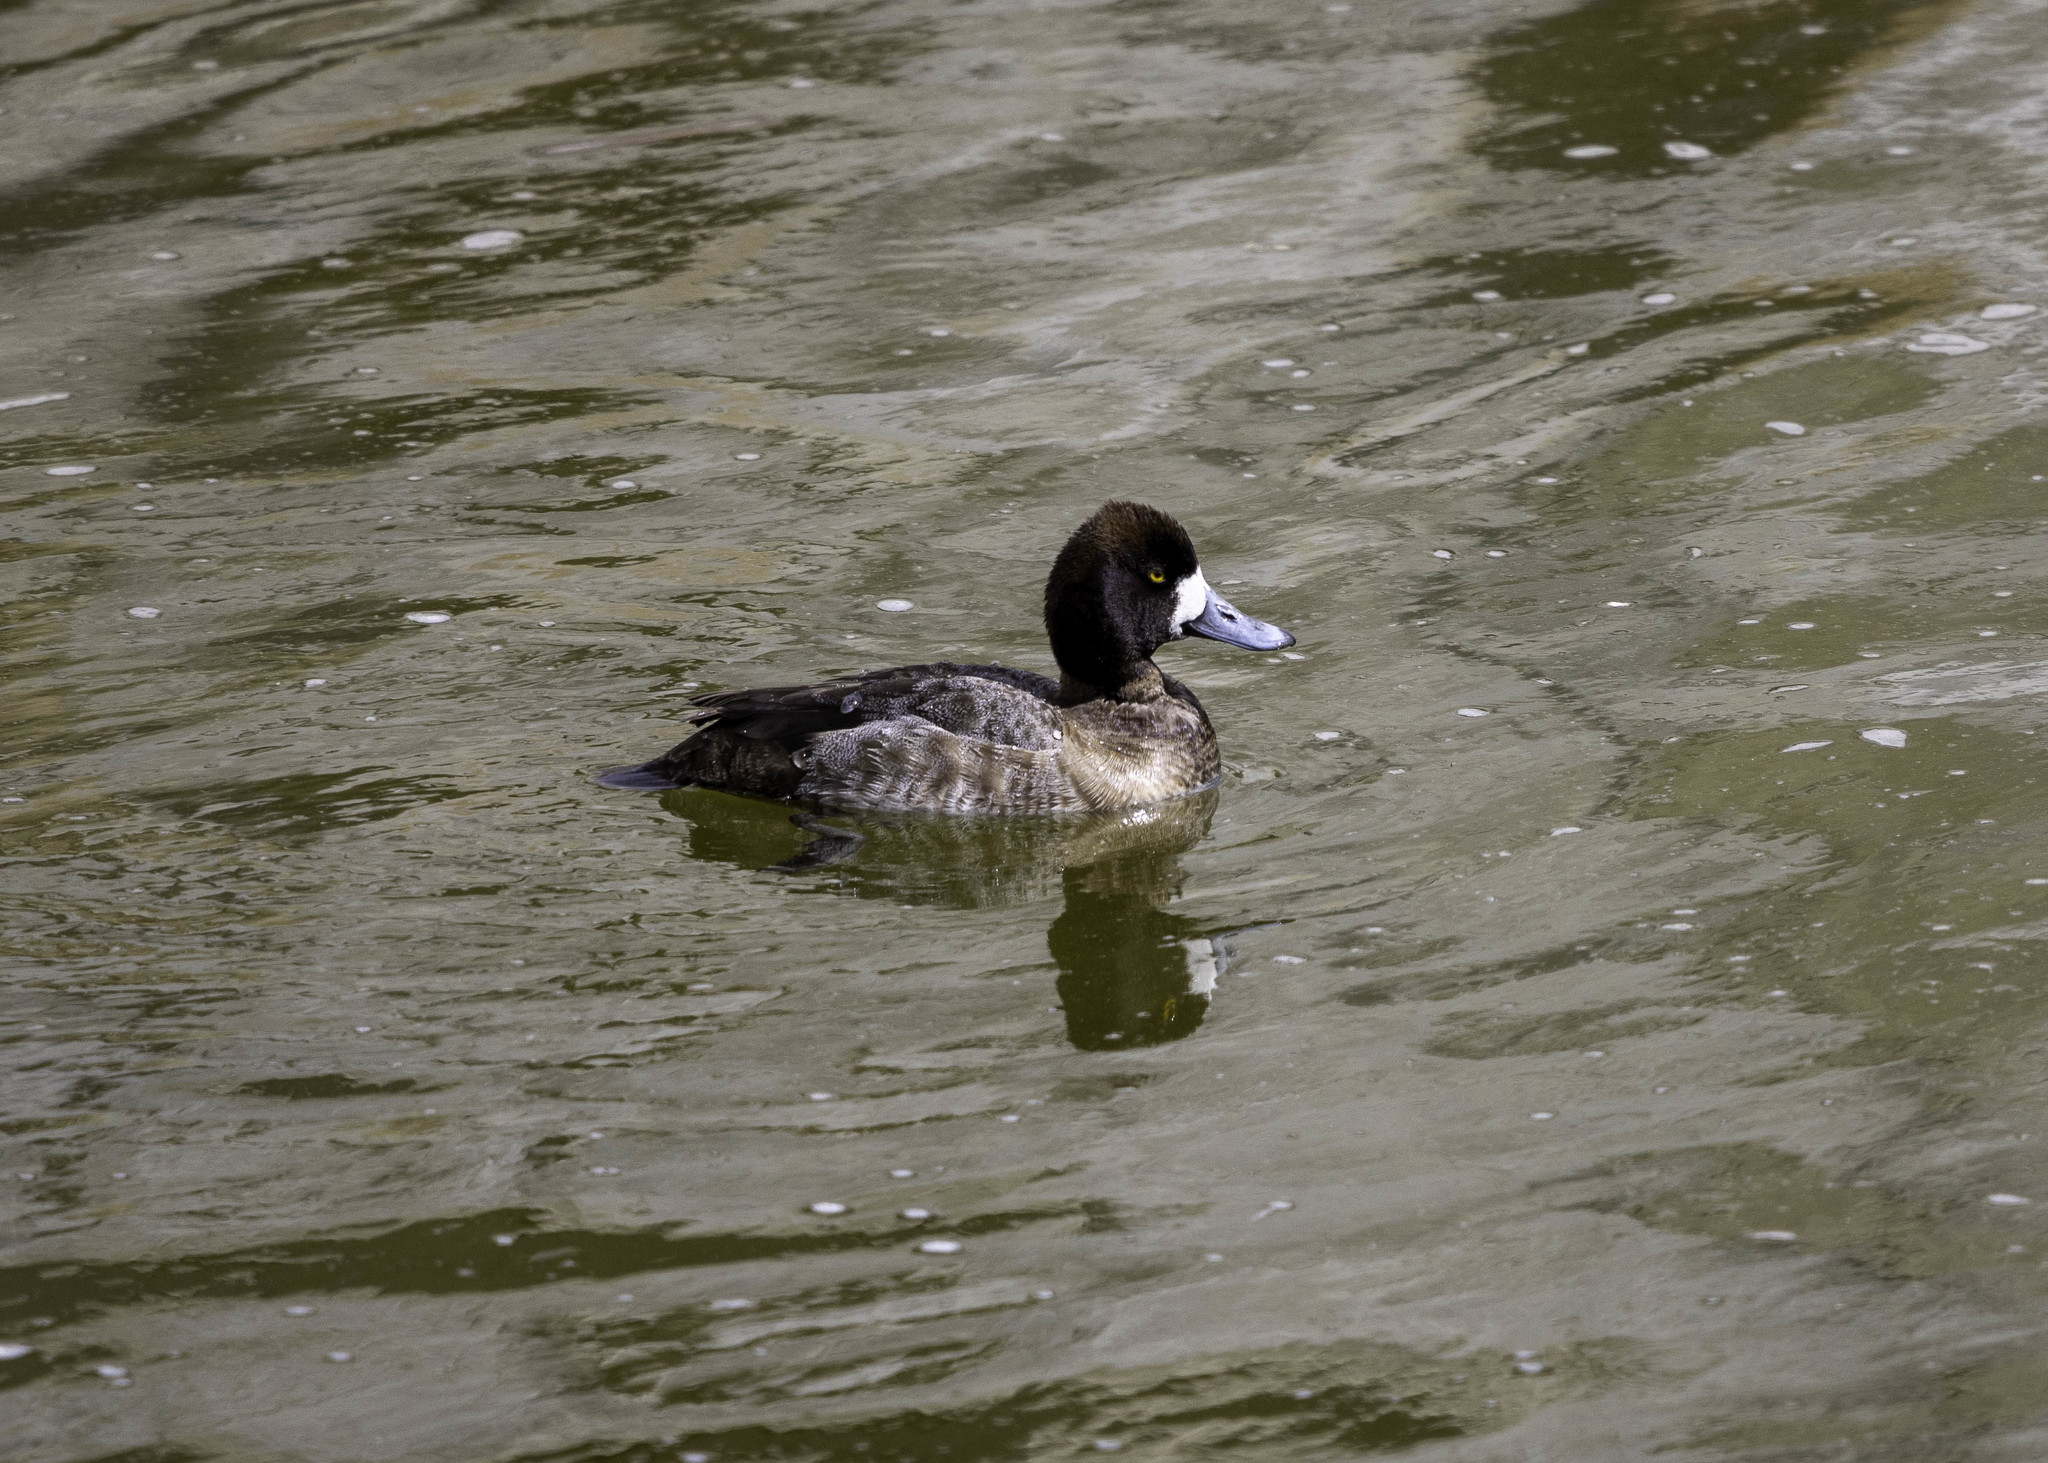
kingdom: Animalia
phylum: Chordata
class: Aves
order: Anseriformes
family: Anatidae
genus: Aythya
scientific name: Aythya affinis
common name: Lesser scaup
